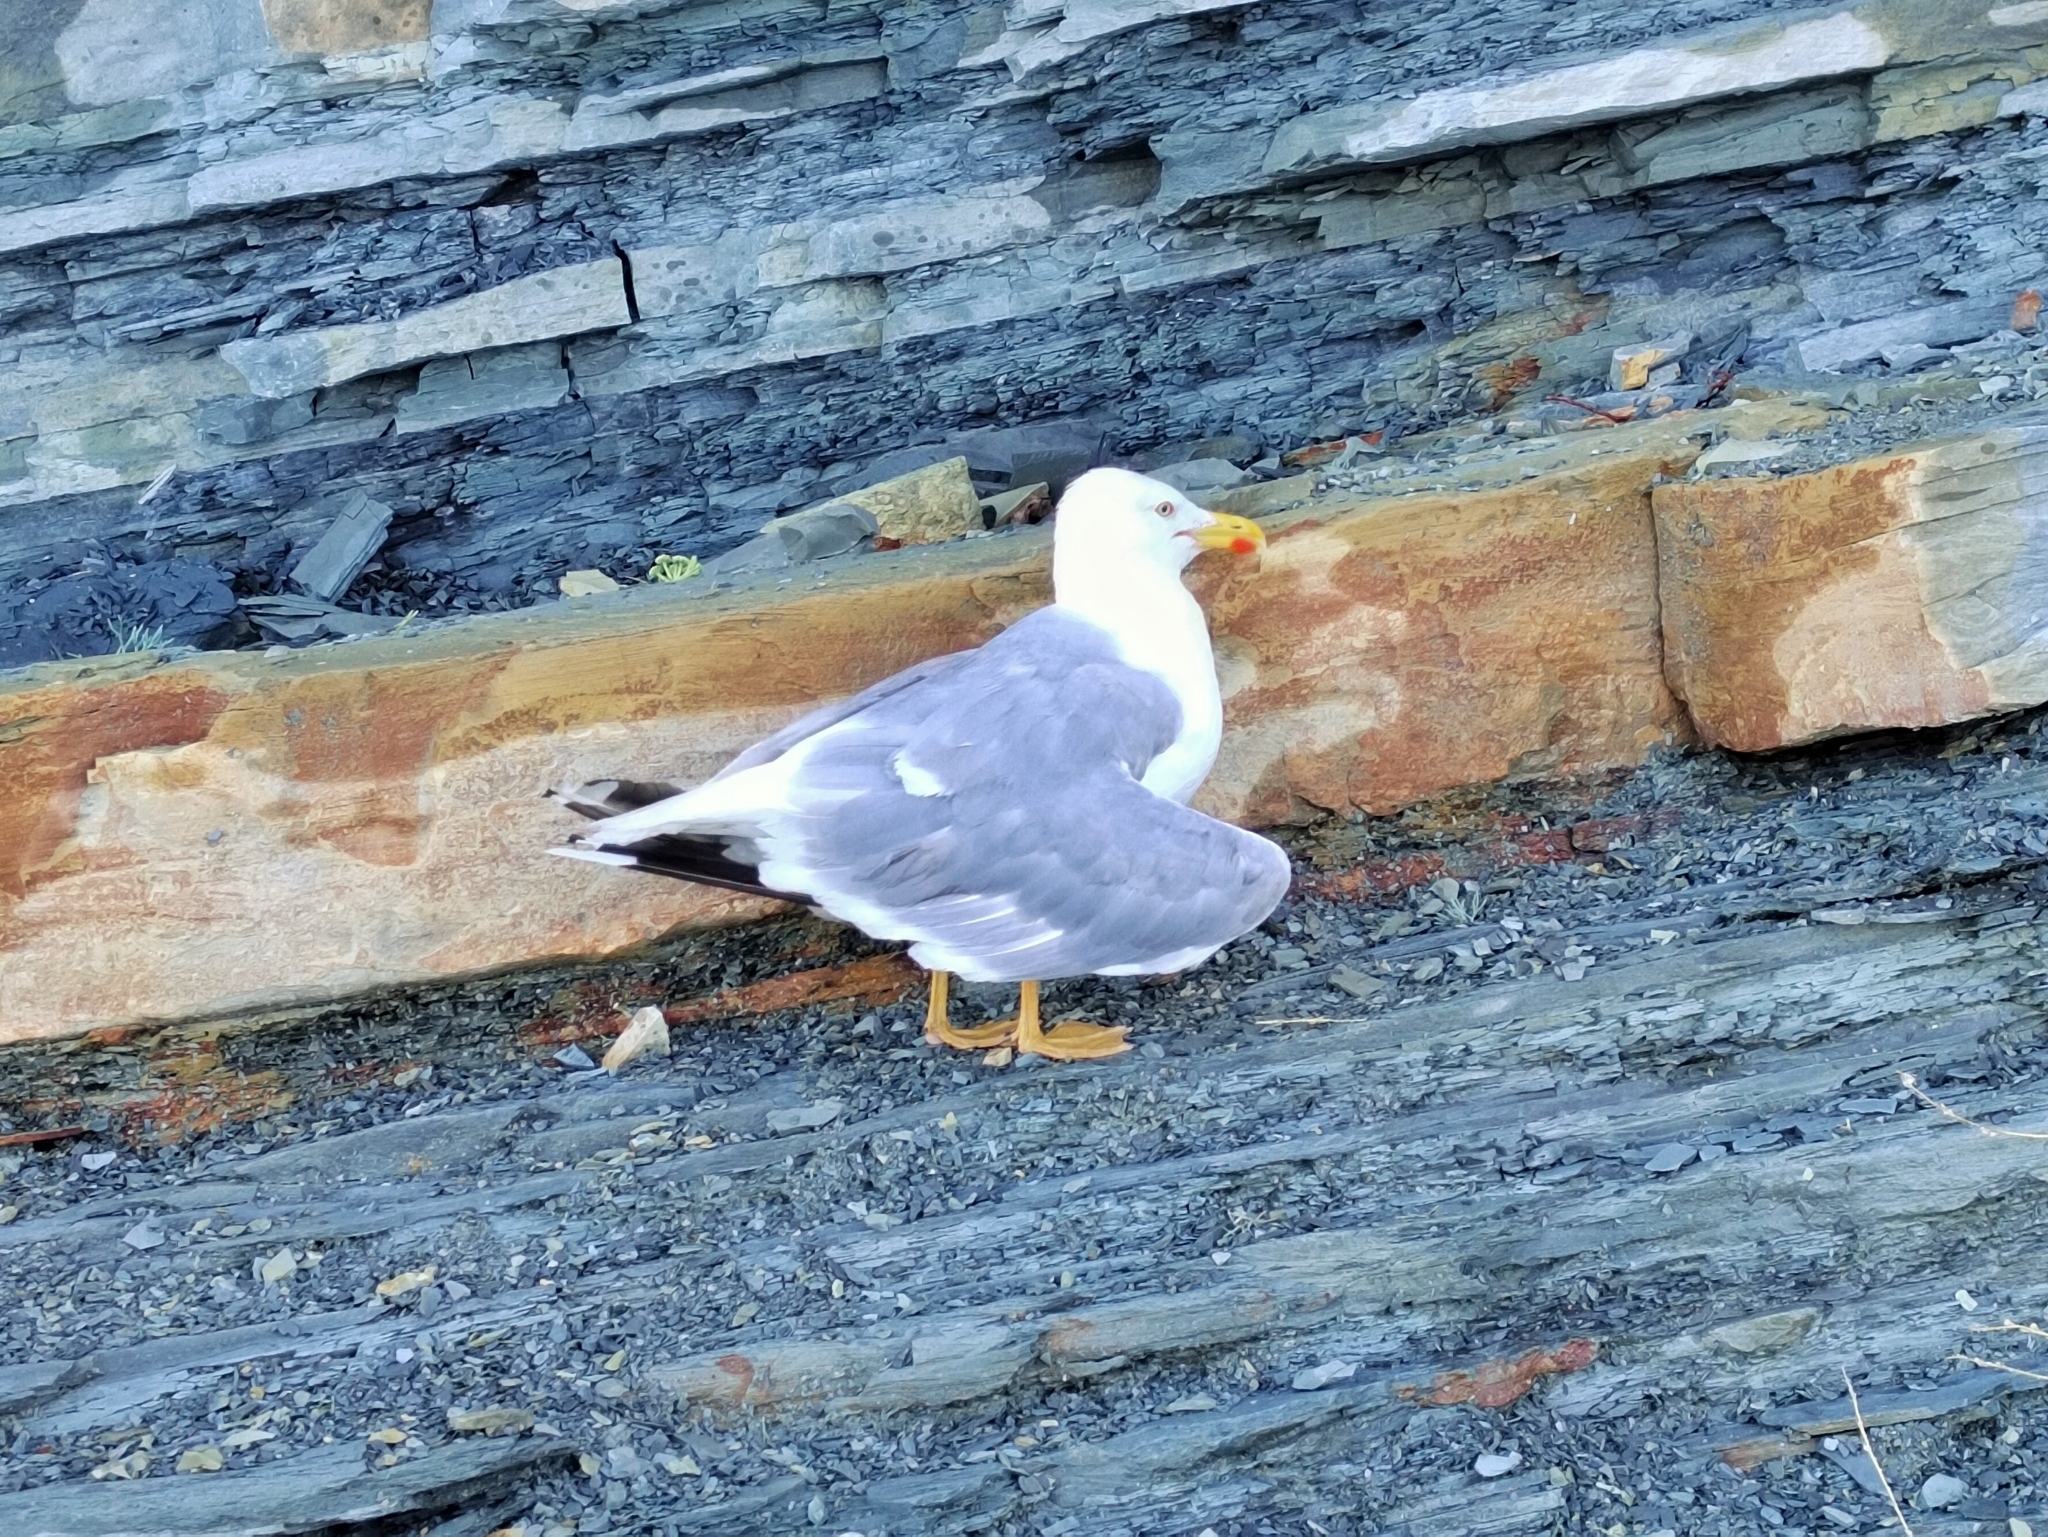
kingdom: Animalia
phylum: Chordata
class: Aves
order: Charadriiformes
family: Laridae
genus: Larus
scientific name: Larus michahellis
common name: Yellow-legged gull
